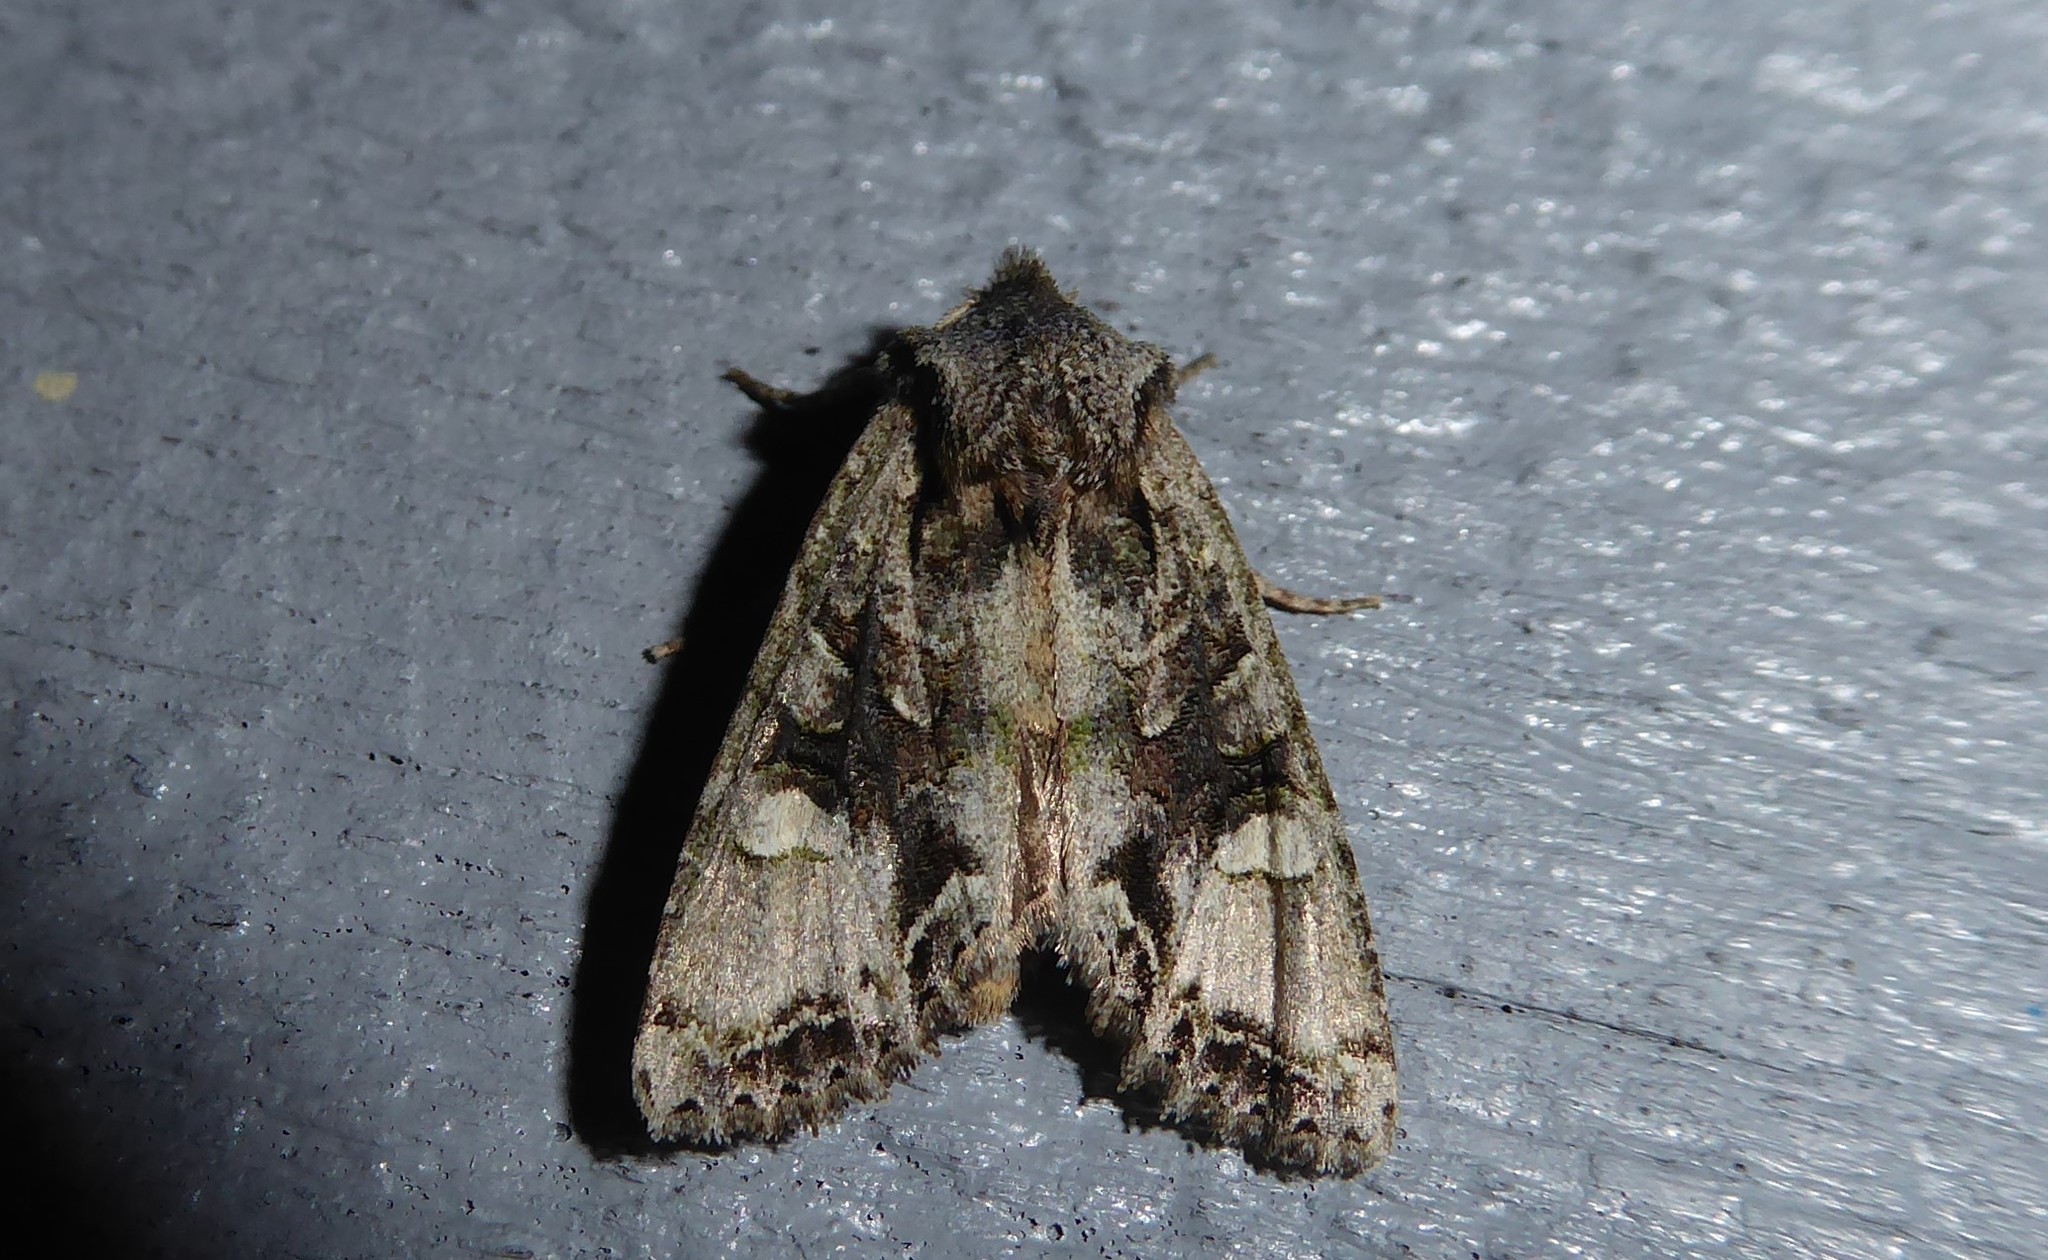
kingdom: Animalia
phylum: Arthropoda
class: Insecta
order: Lepidoptera
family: Noctuidae
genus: Ichneutica
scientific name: Ichneutica insignis
